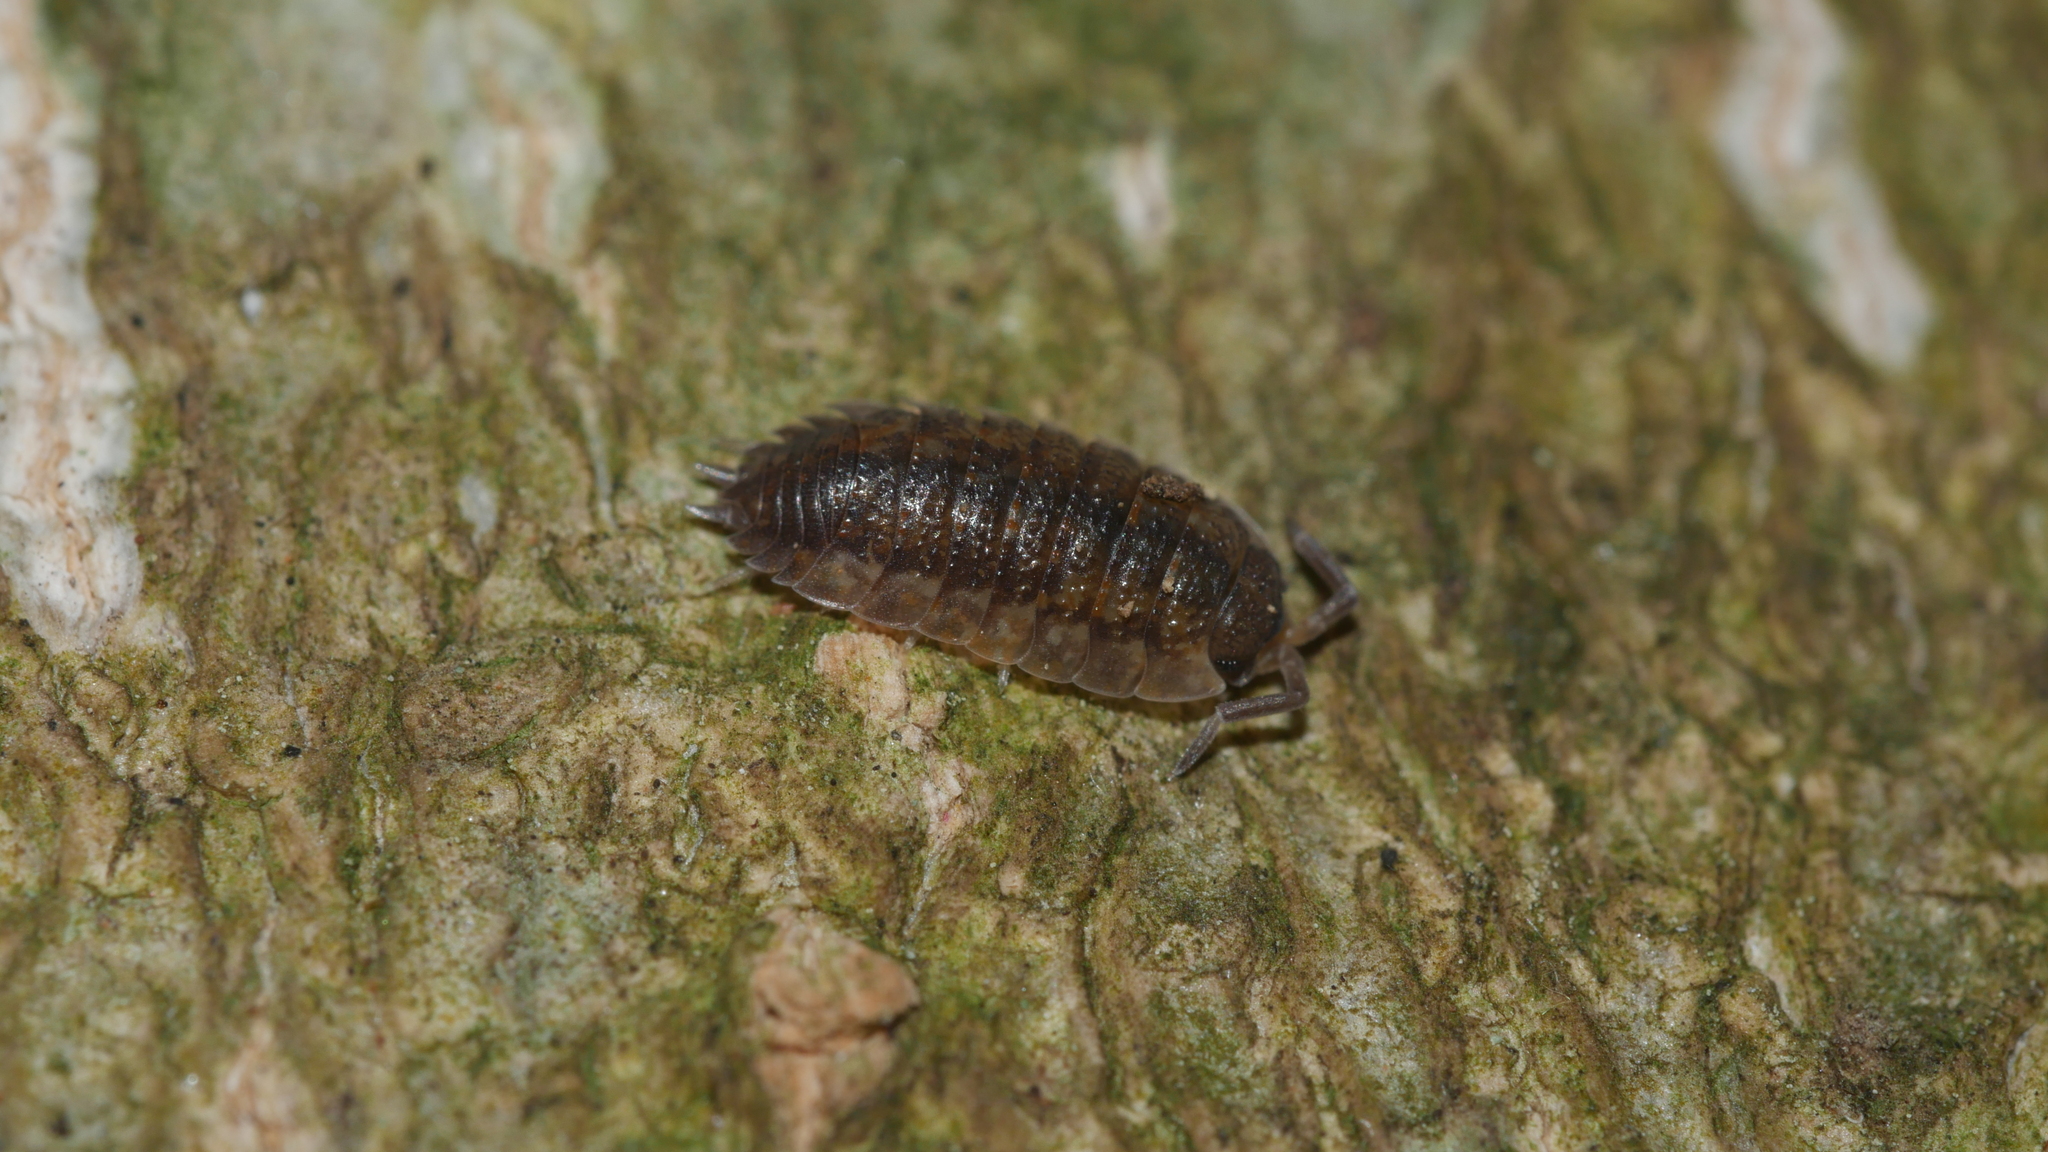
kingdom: Animalia
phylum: Arthropoda
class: Malacostraca
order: Isopoda
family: Porcellionidae
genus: Porcellio
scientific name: Porcellio scaber
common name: Common rough woodlouse
